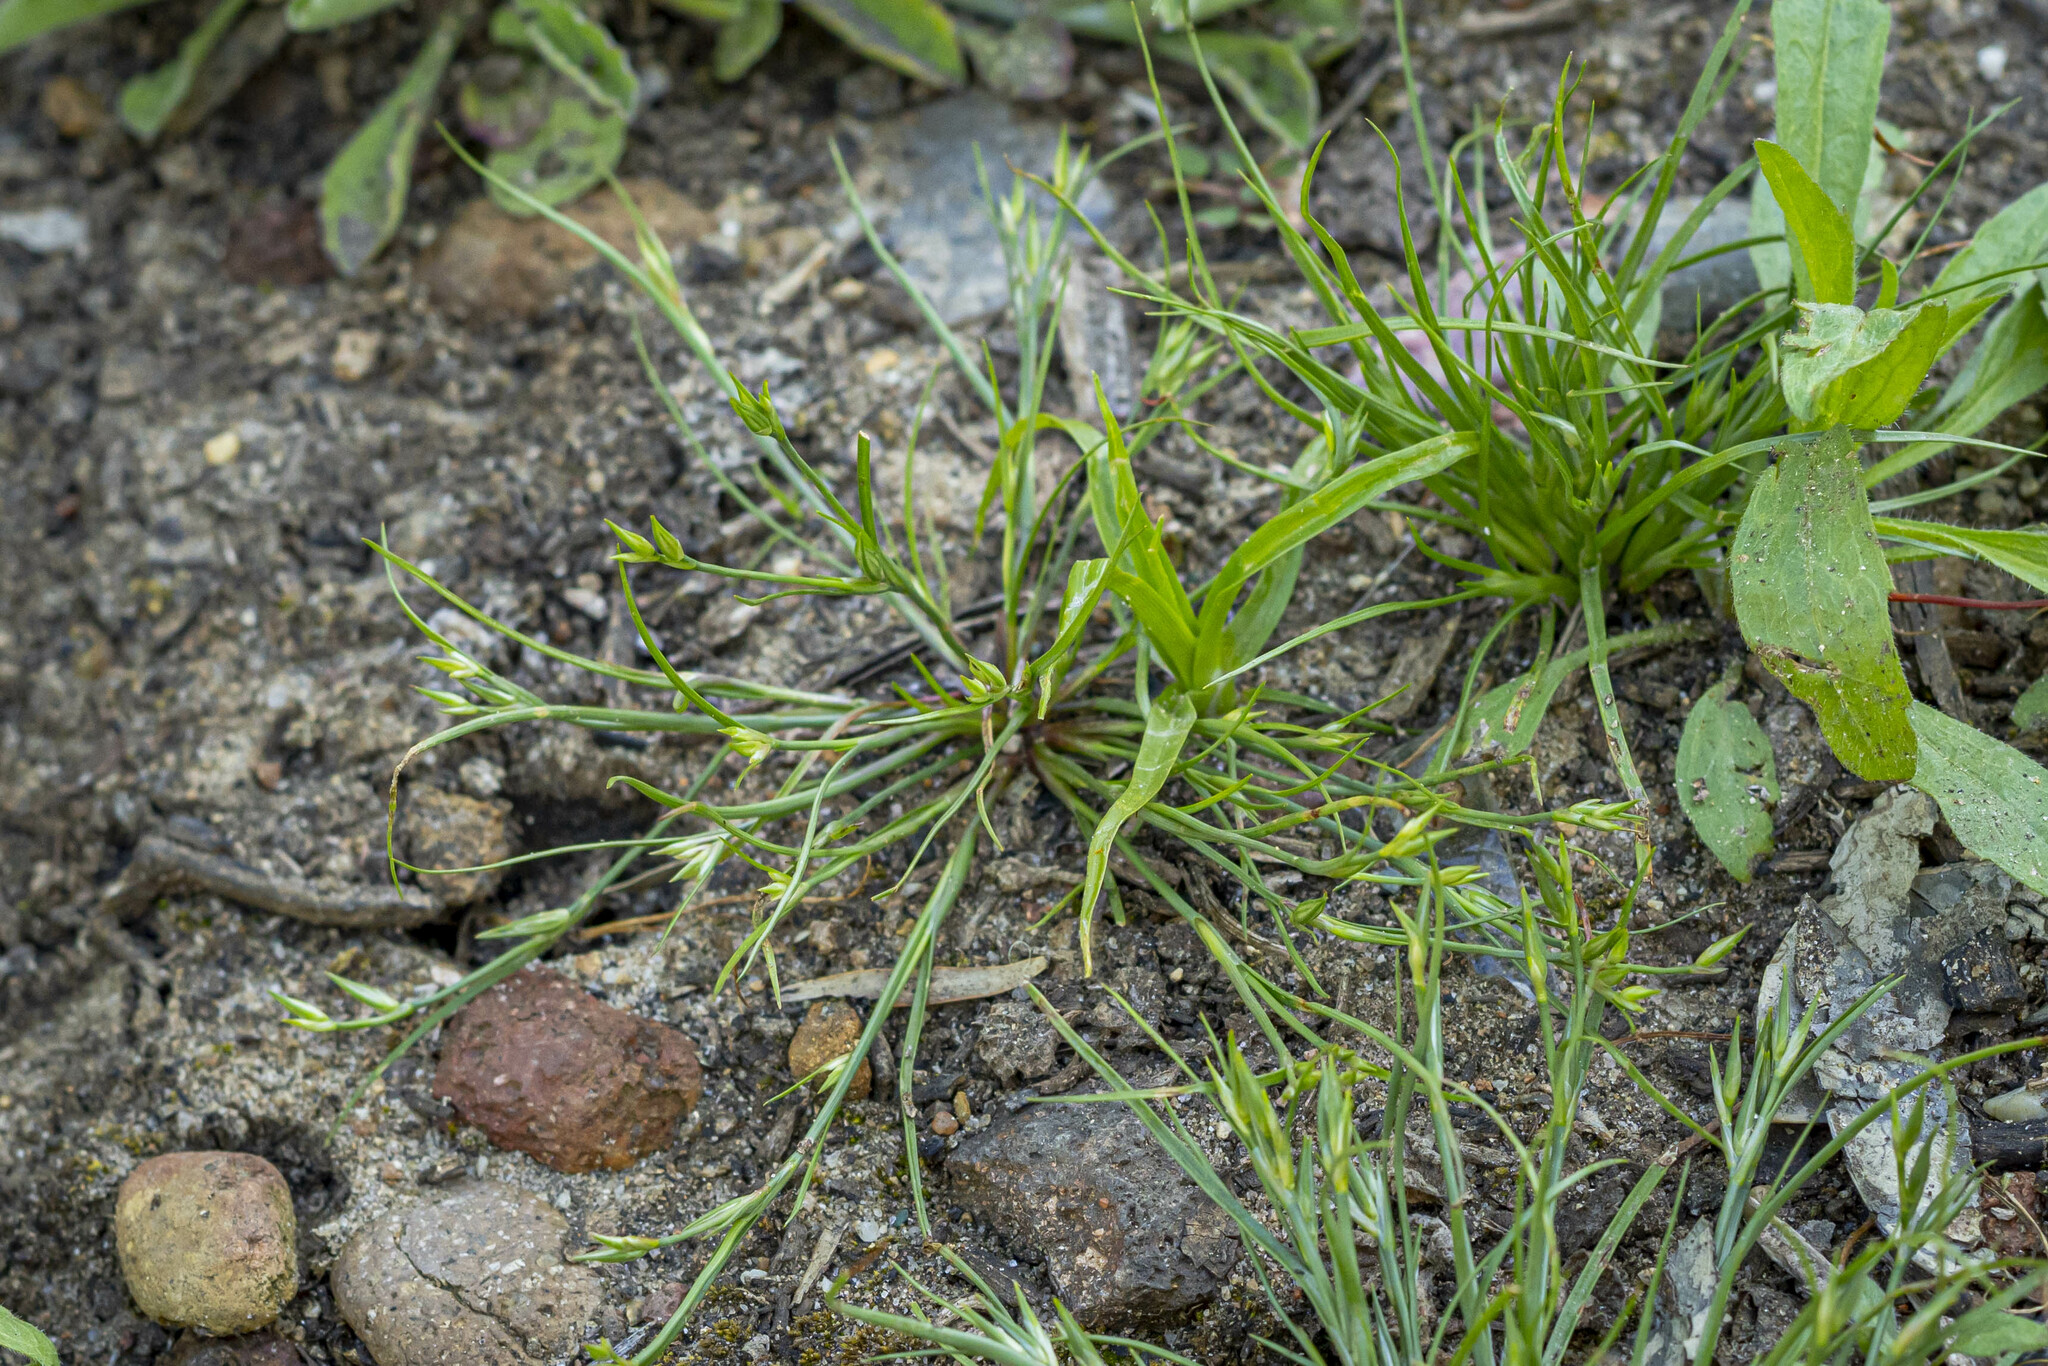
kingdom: Plantae
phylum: Tracheophyta
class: Liliopsida
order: Poales
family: Juncaceae
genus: Juncus
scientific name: Juncus bufonius
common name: Toad rush
